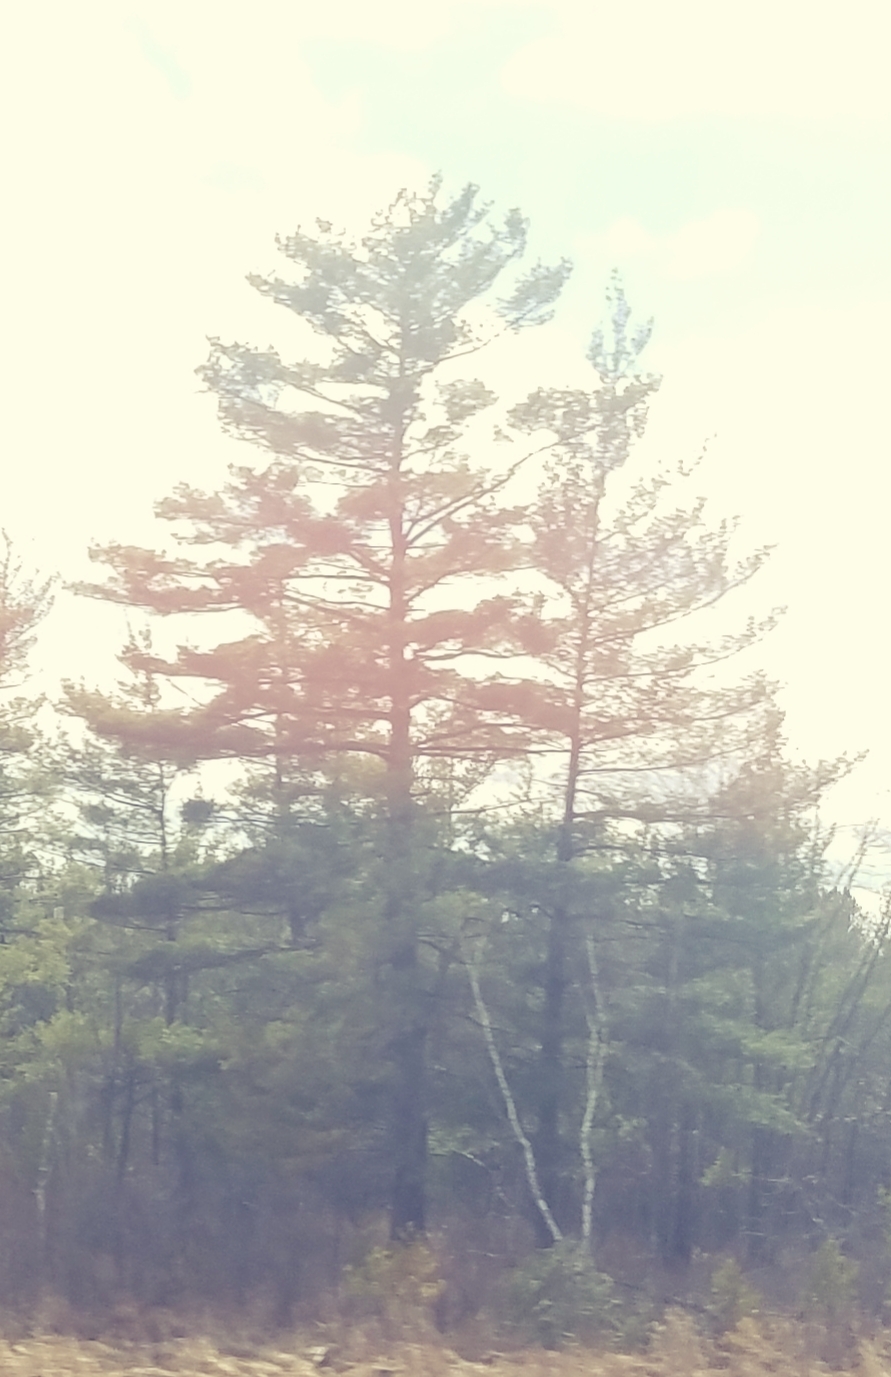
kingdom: Plantae
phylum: Tracheophyta
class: Pinopsida
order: Pinales
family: Pinaceae
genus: Pinus
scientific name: Pinus strobus
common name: Weymouth pine
